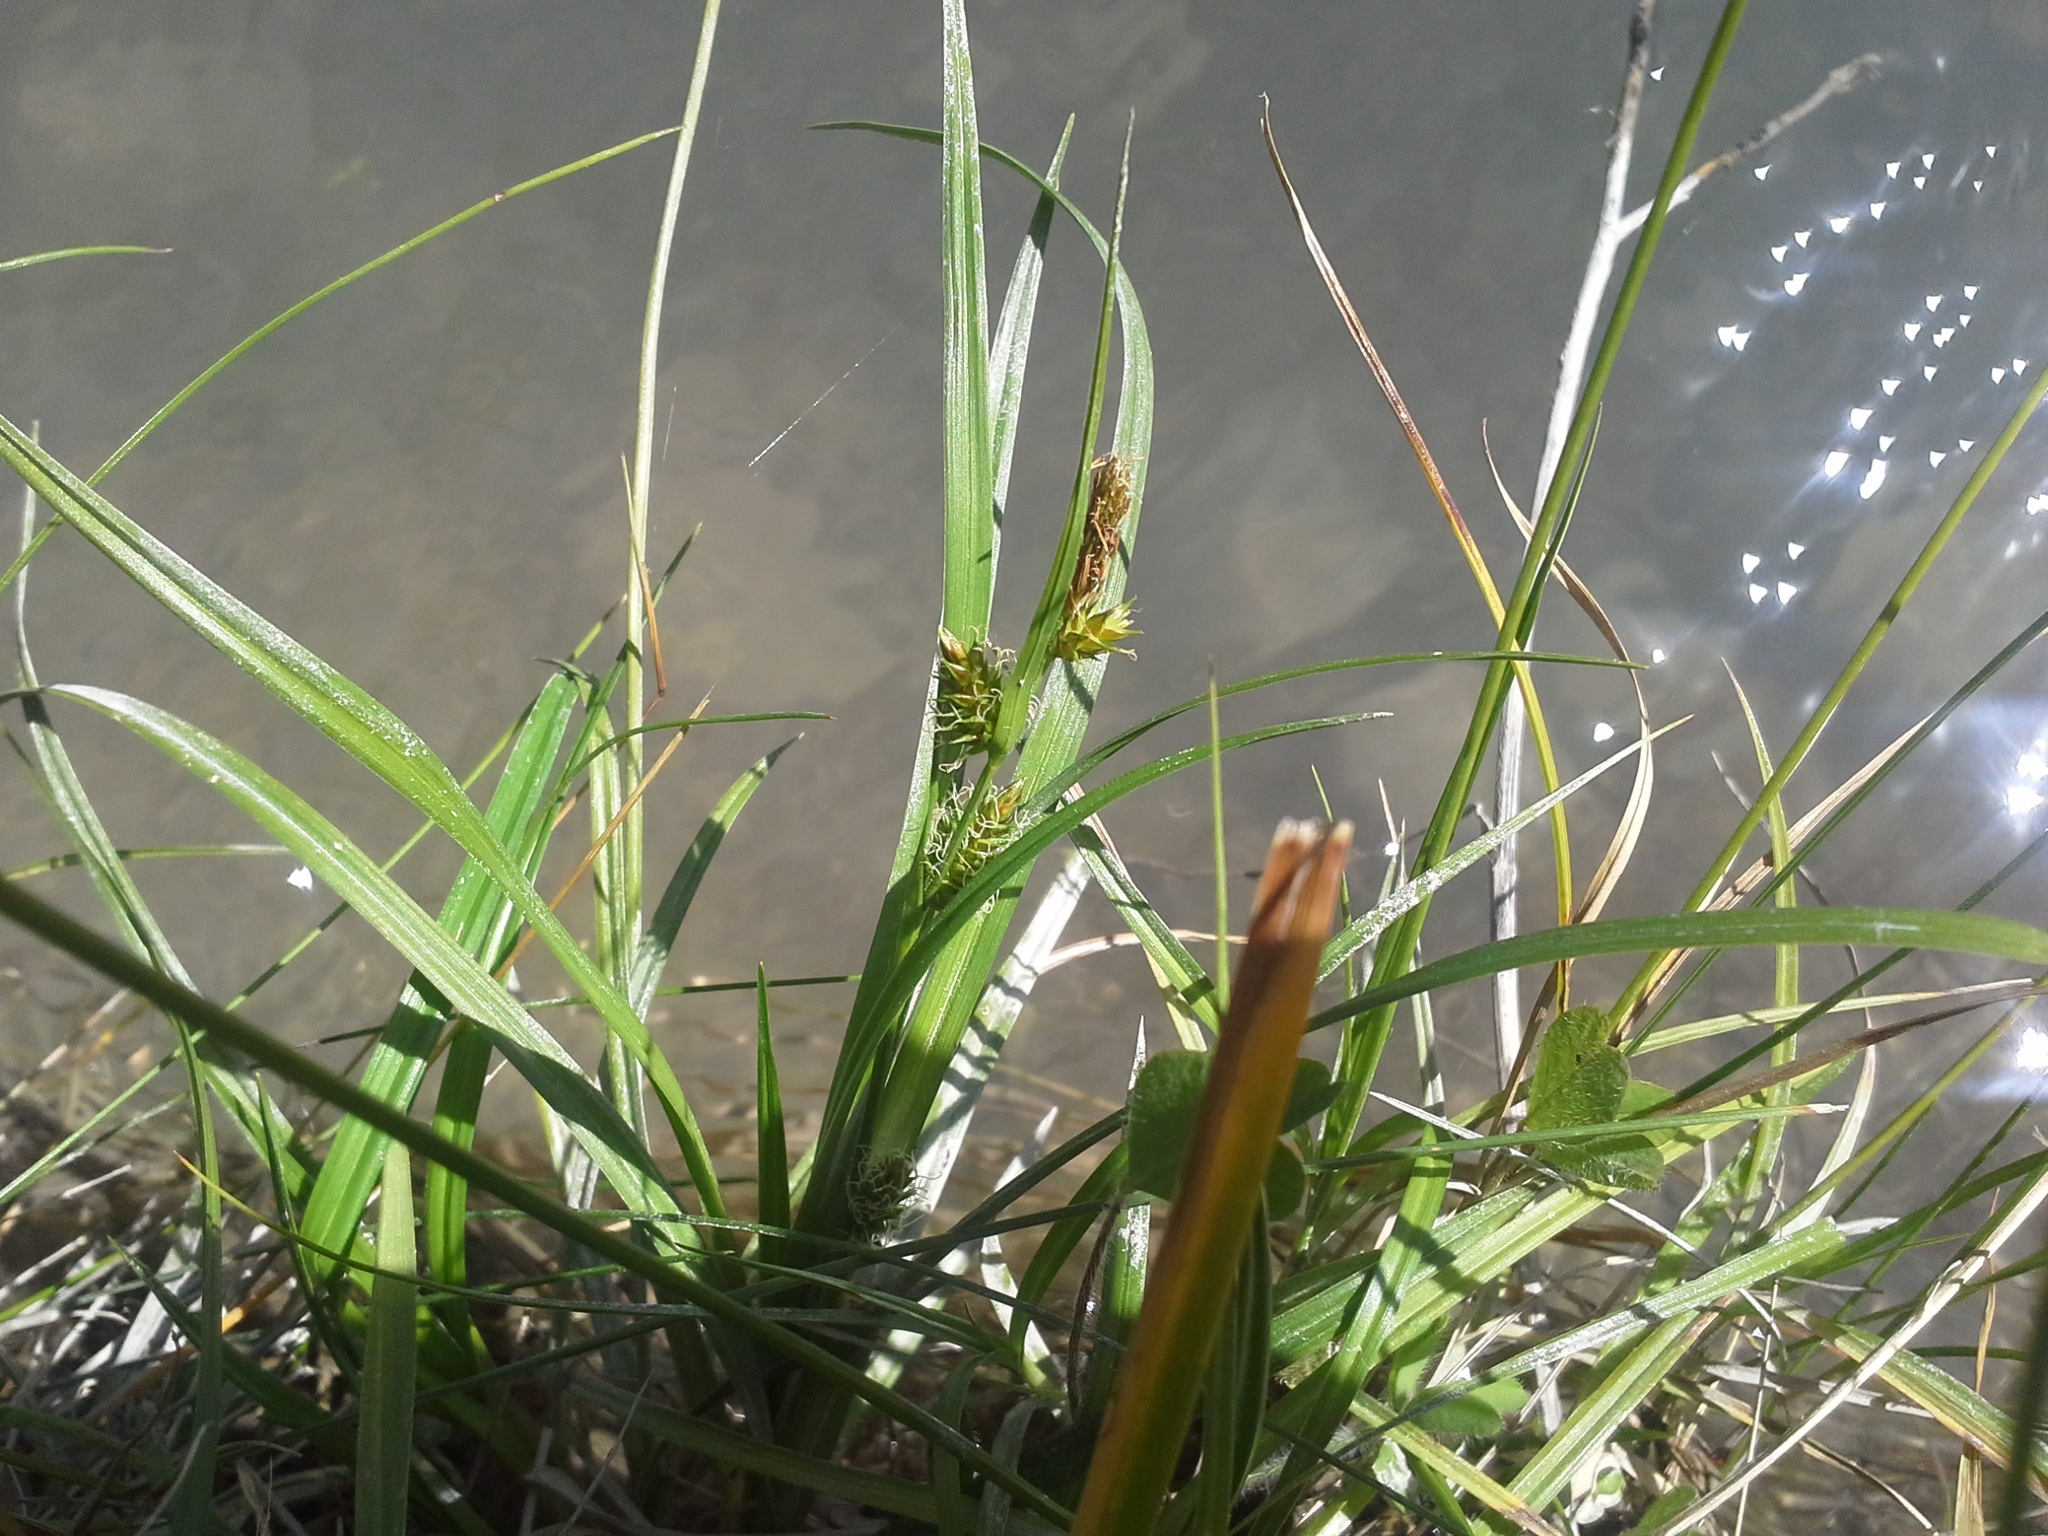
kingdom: Plantae
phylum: Tracheophyta
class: Liliopsida
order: Poales
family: Cyperaceae
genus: Carex
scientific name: Carex demissa
